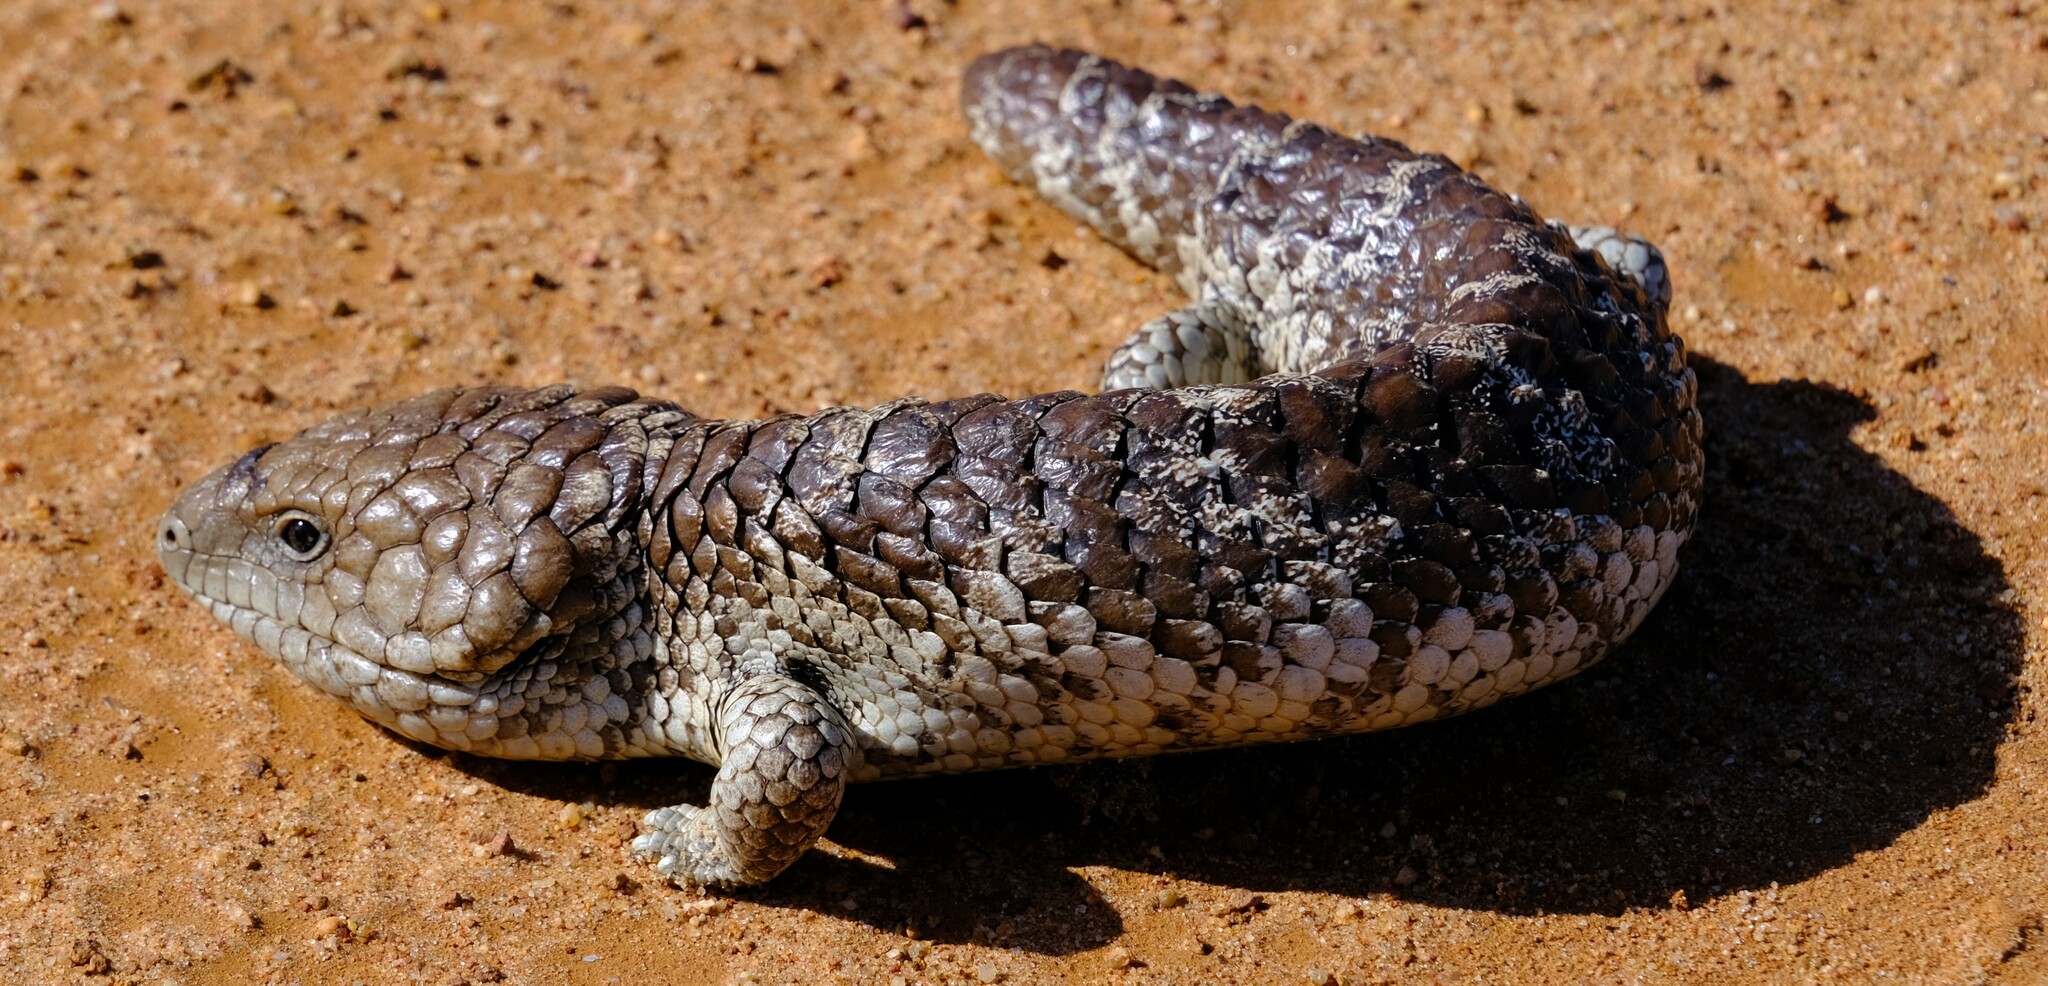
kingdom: Animalia
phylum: Chordata
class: Squamata
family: Scincidae
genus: Tiliqua
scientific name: Tiliqua rugosa
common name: Pinecone lizard
